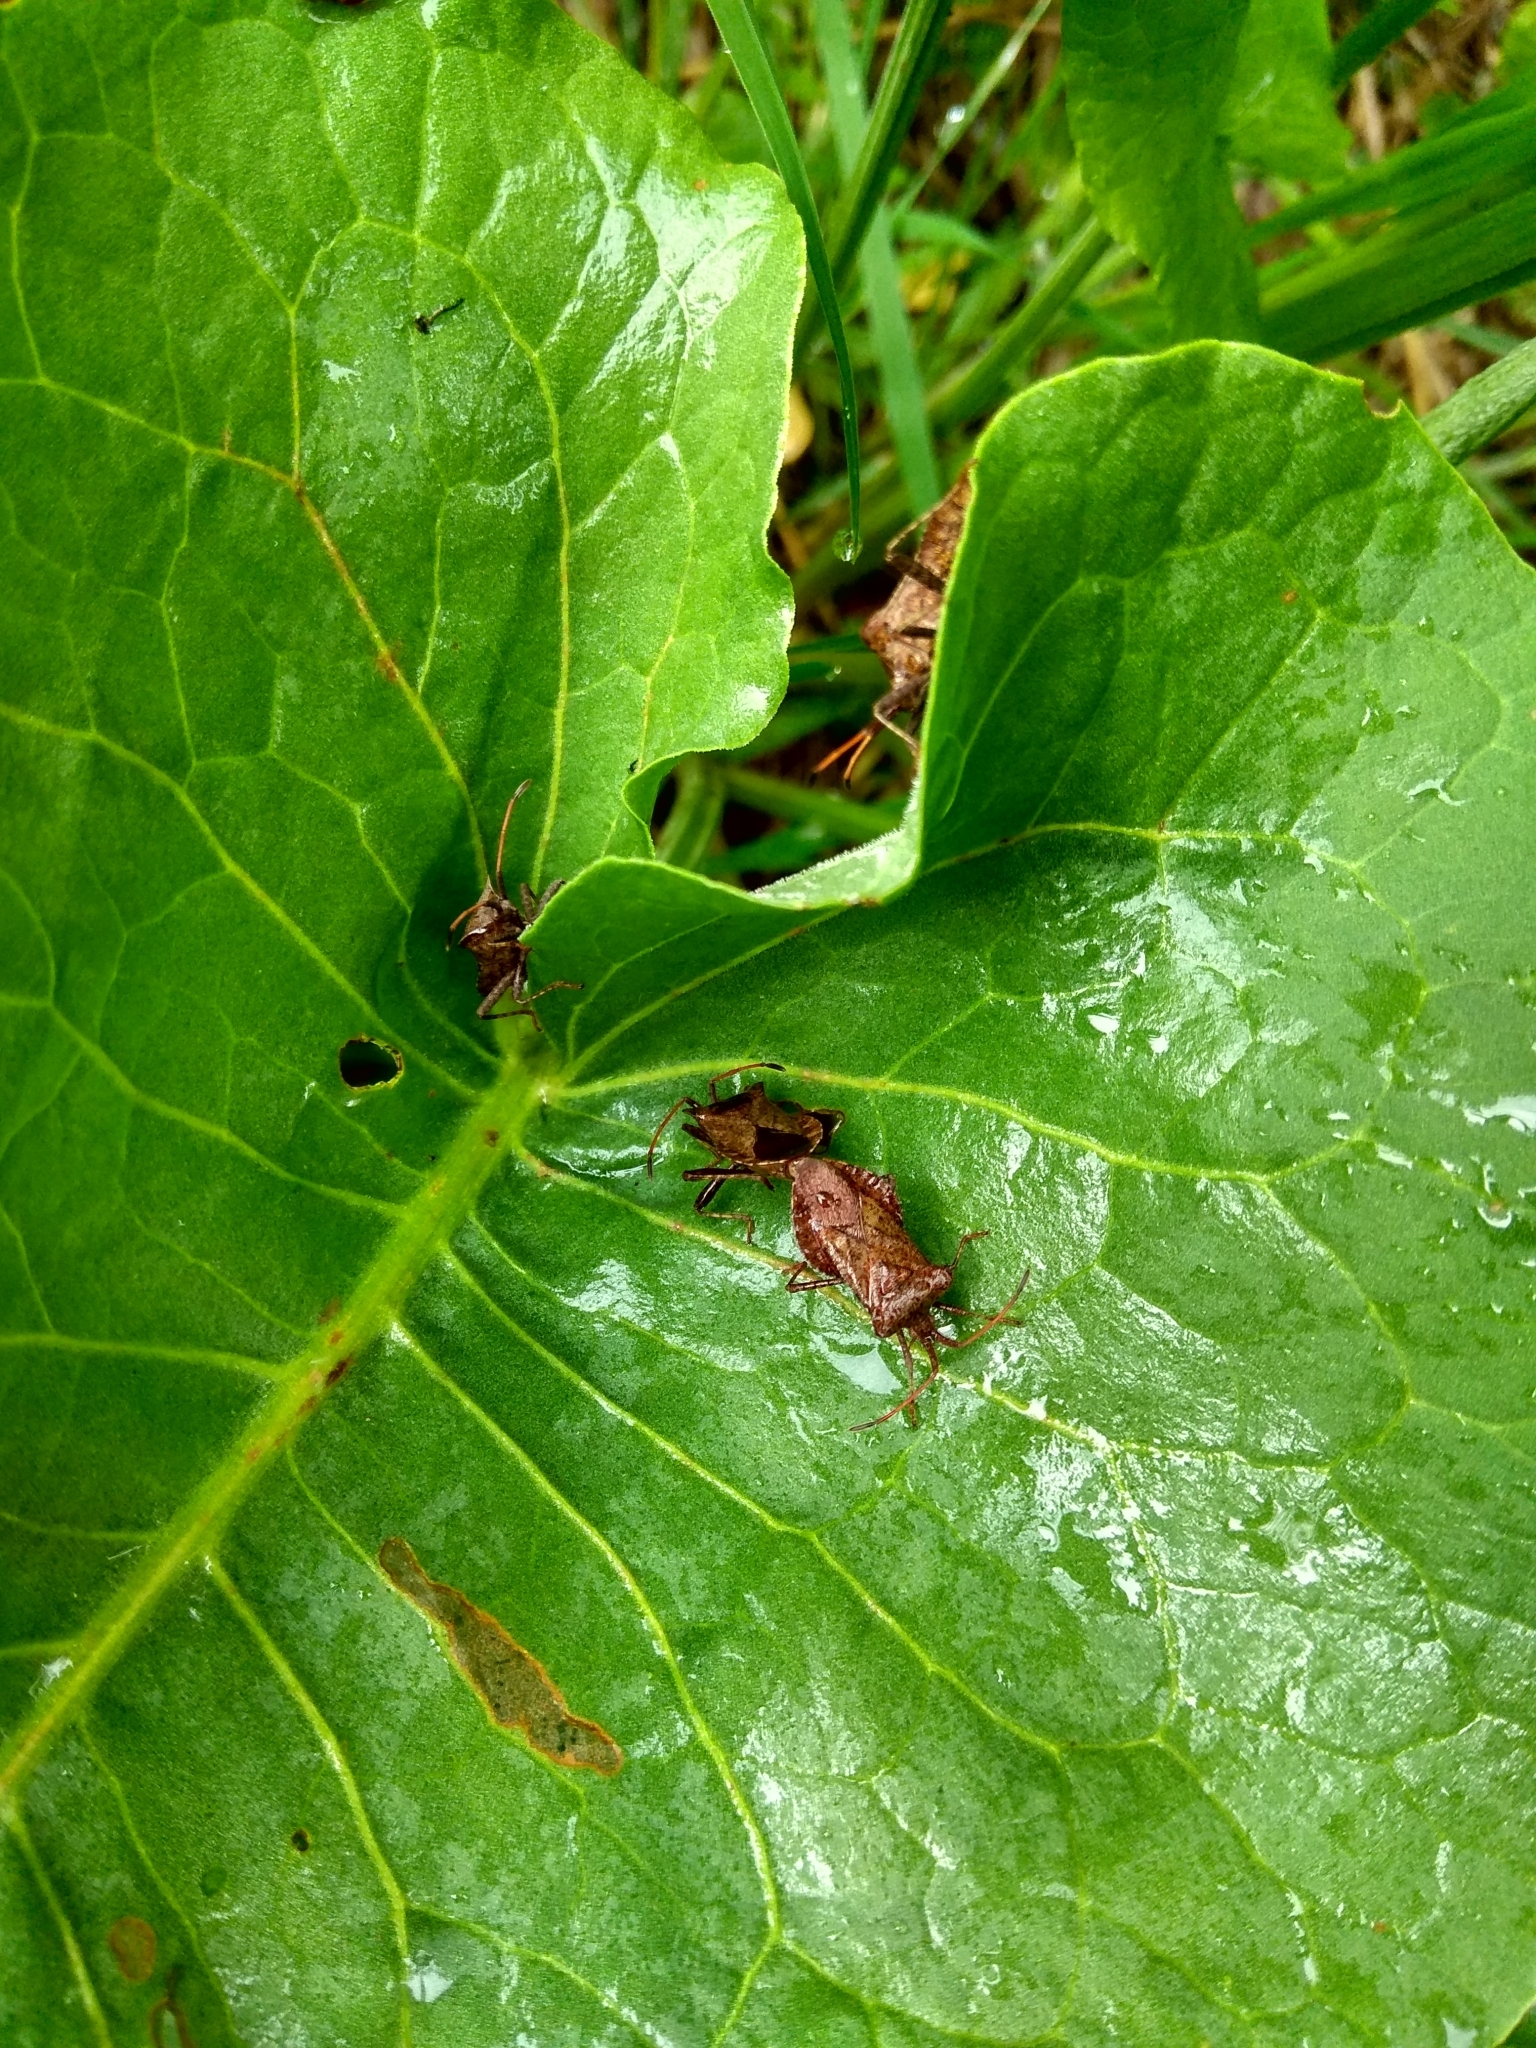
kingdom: Animalia
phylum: Arthropoda
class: Insecta
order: Hemiptera
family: Coreidae
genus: Coreus
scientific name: Coreus marginatus
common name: Dock bug
